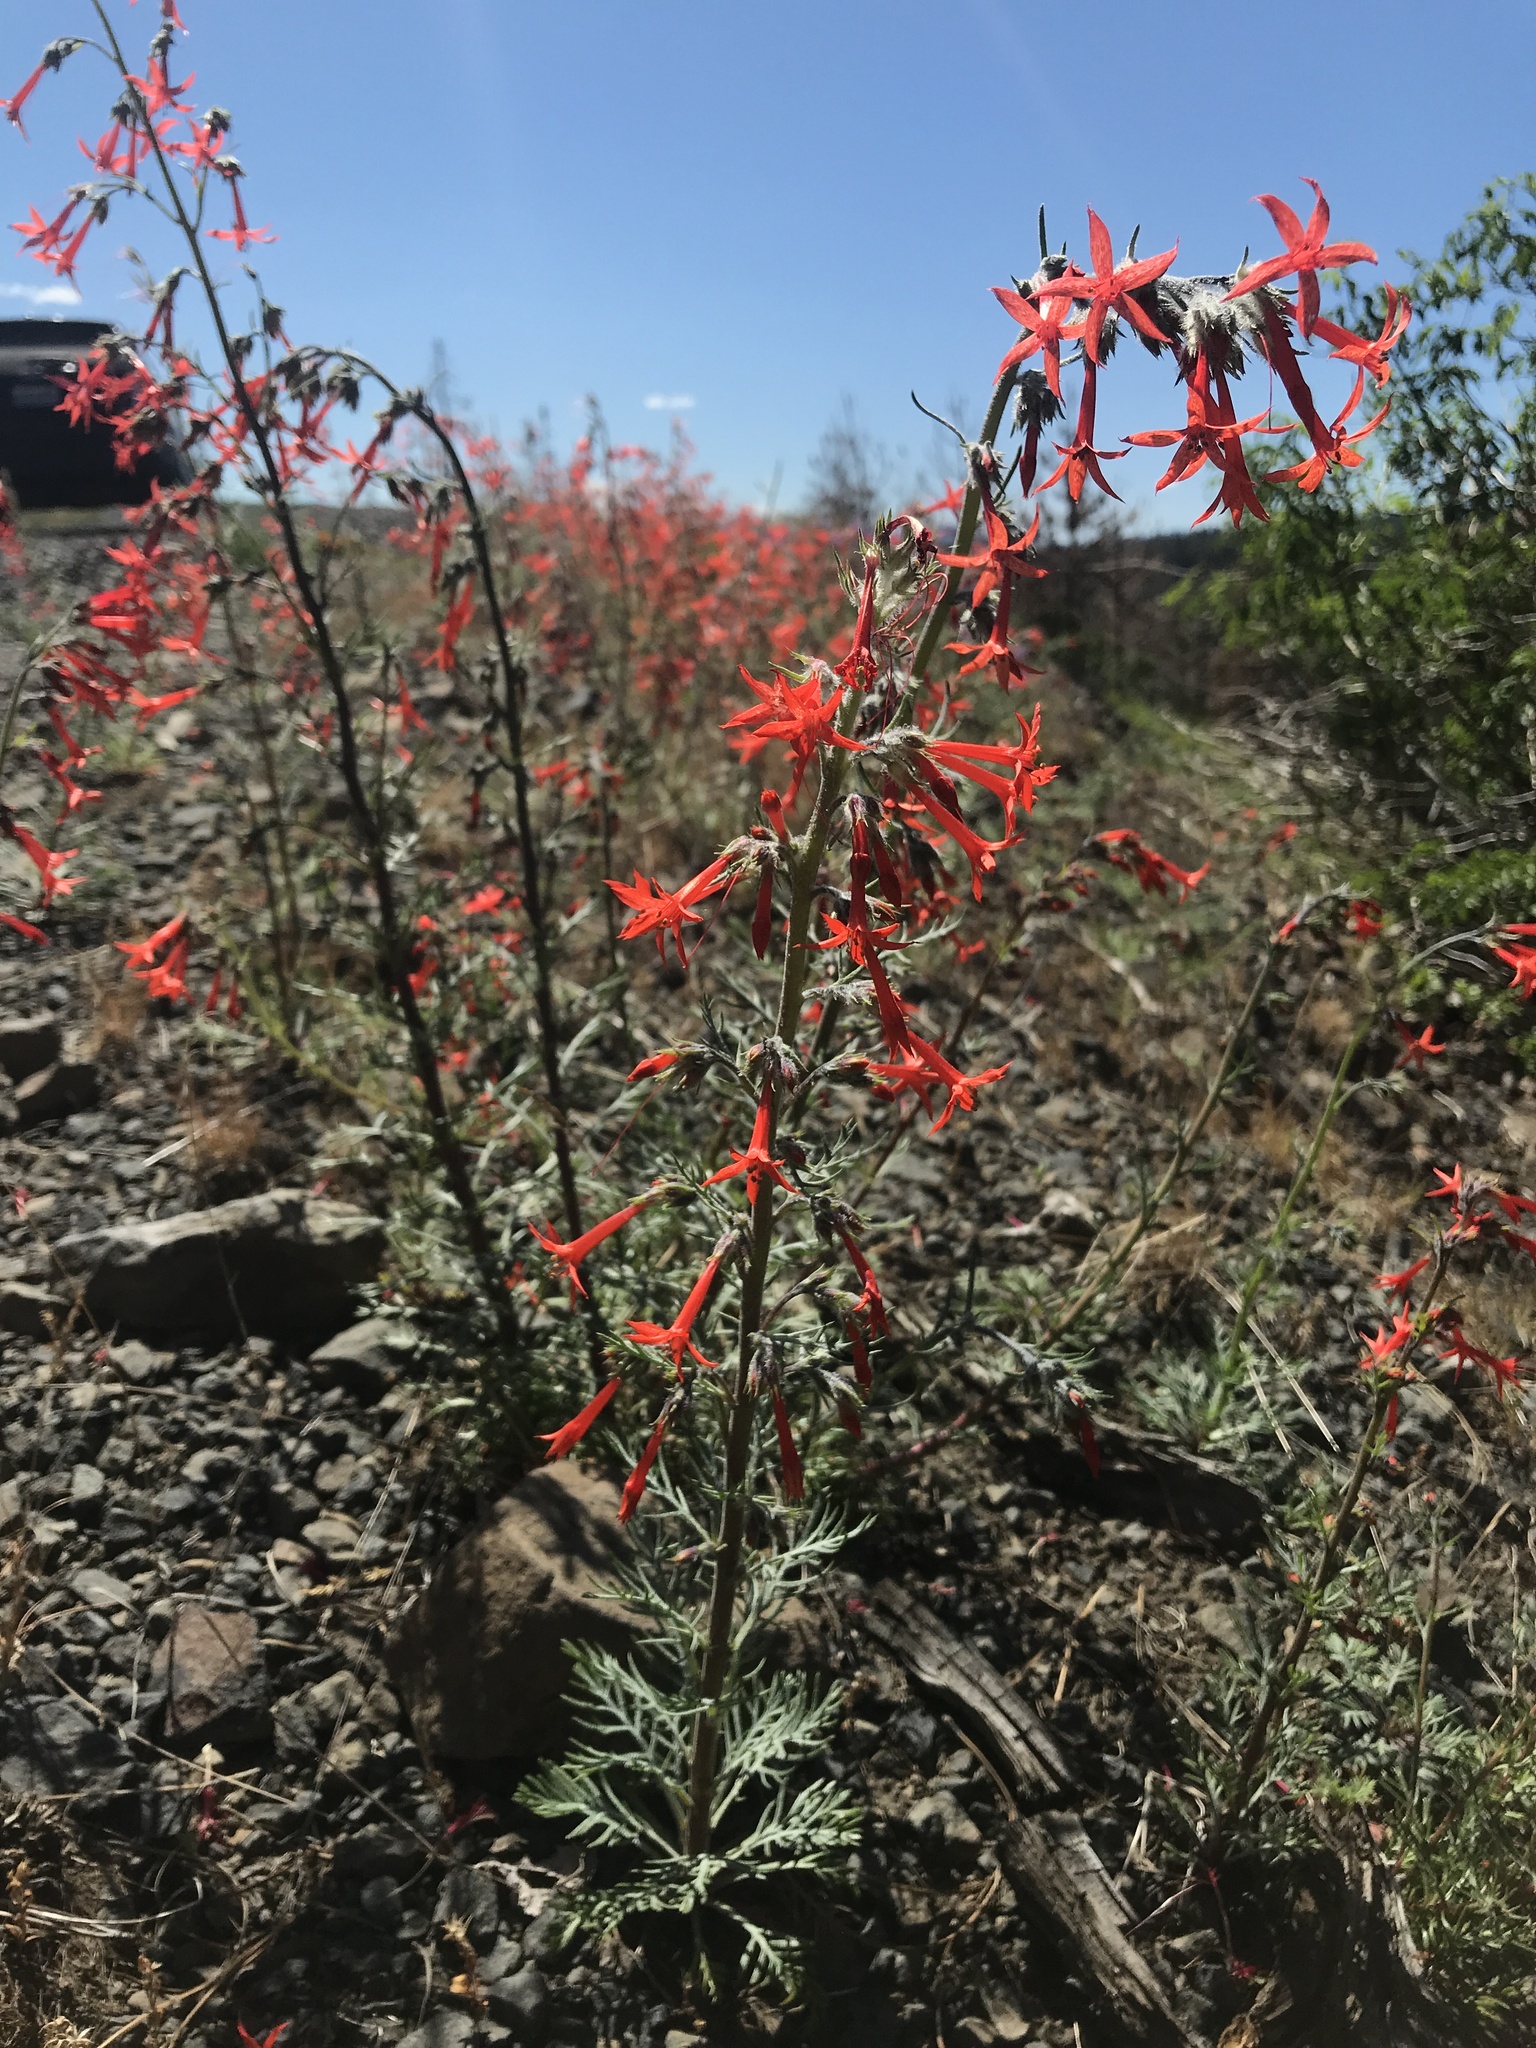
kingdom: Plantae
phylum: Tracheophyta
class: Magnoliopsida
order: Ericales
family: Polemoniaceae
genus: Ipomopsis
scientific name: Ipomopsis aggregata
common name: Scarlet gilia
